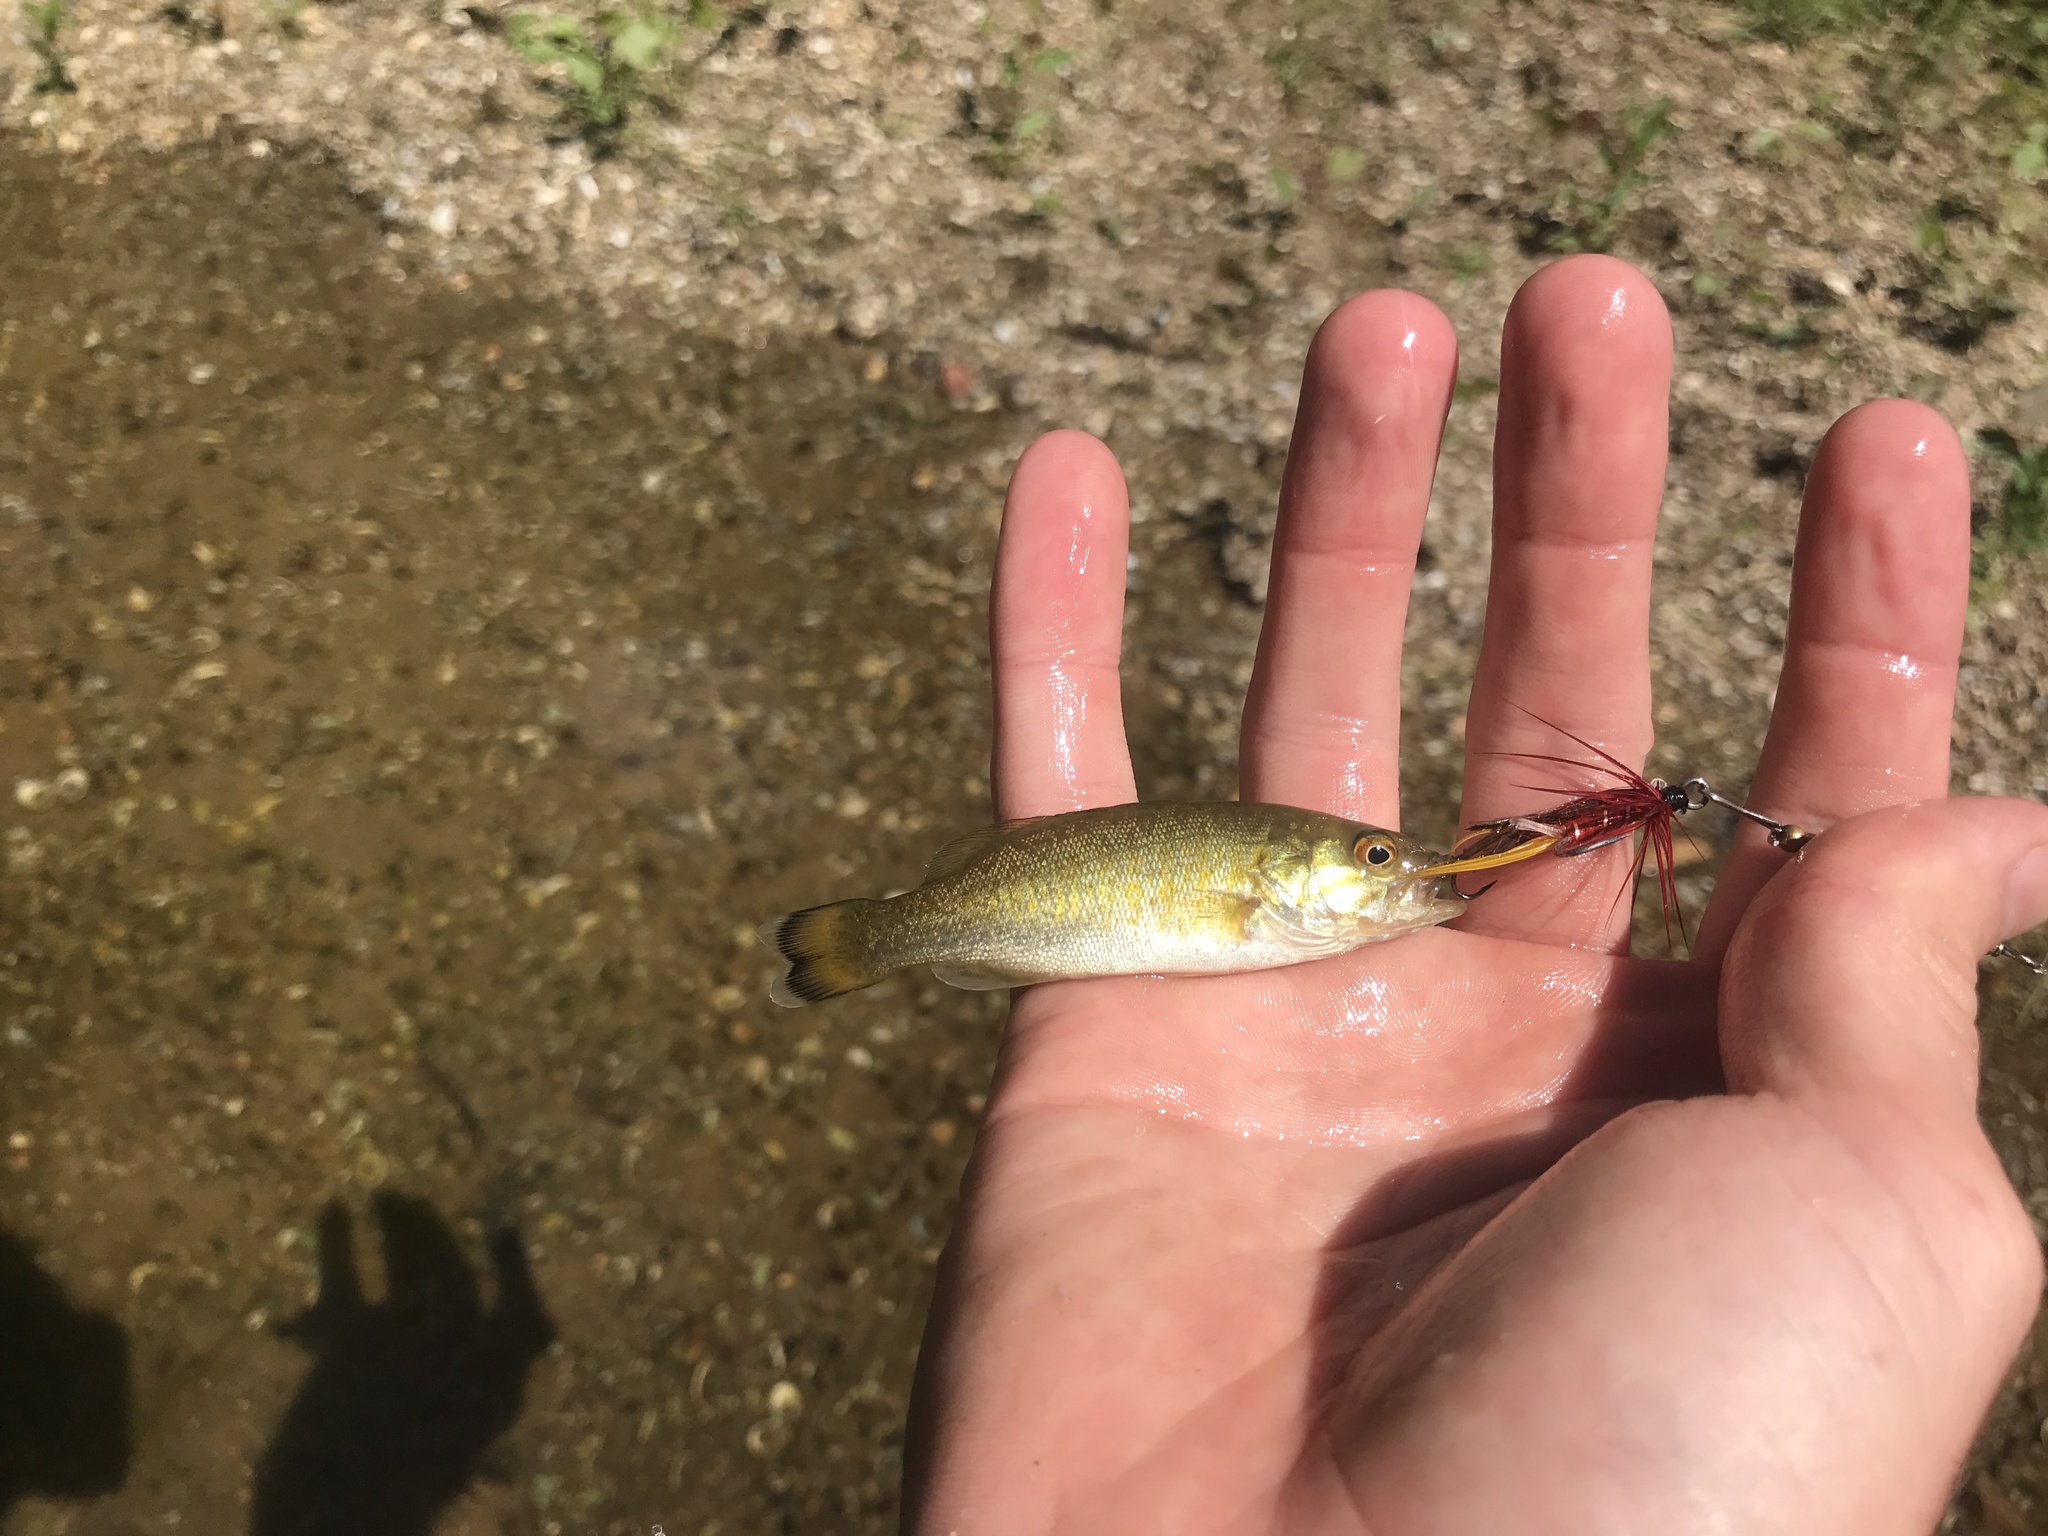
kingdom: Animalia
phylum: Chordata
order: Perciformes
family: Centrarchidae
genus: Micropterus
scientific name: Micropterus dolomieu
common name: Smallmouth bass
